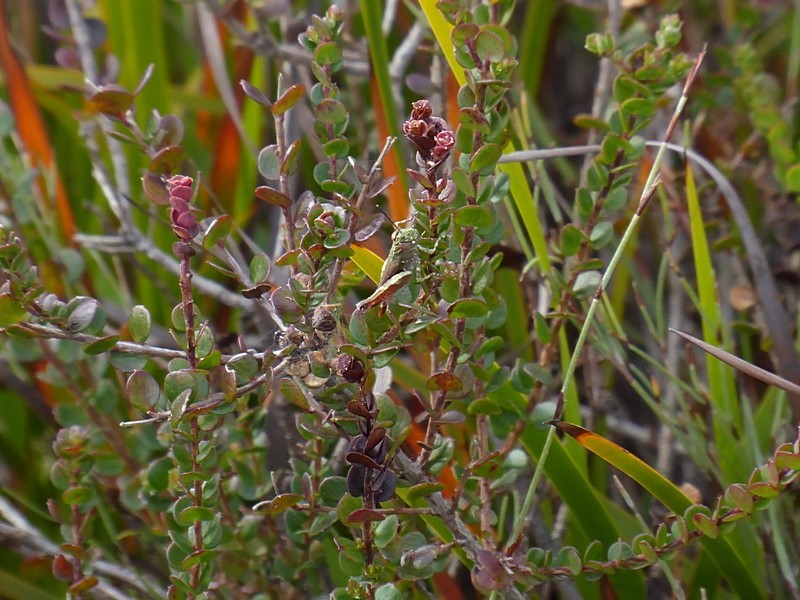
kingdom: Plantae
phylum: Tracheophyta
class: Magnoliopsida
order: Apiales
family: Apiaceae
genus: Platysace
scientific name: Platysace lanceolata
